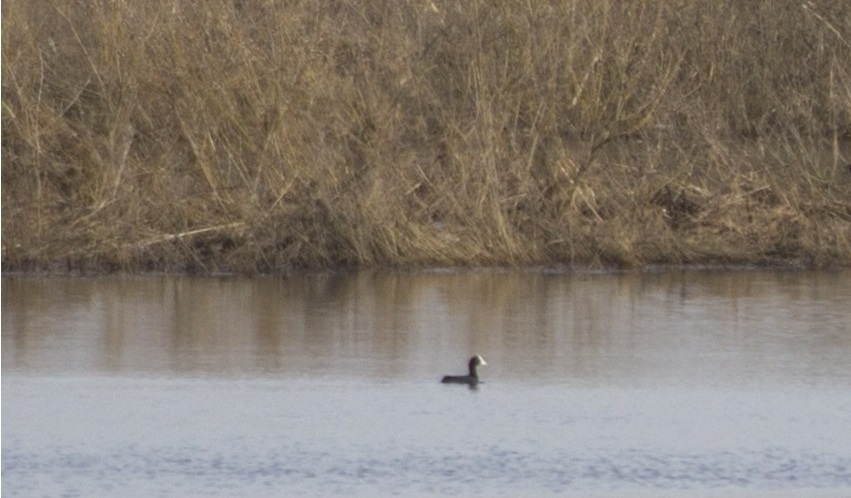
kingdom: Animalia
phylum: Chordata
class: Aves
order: Gruiformes
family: Rallidae
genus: Fulica
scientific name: Fulica atra
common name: Eurasian coot
